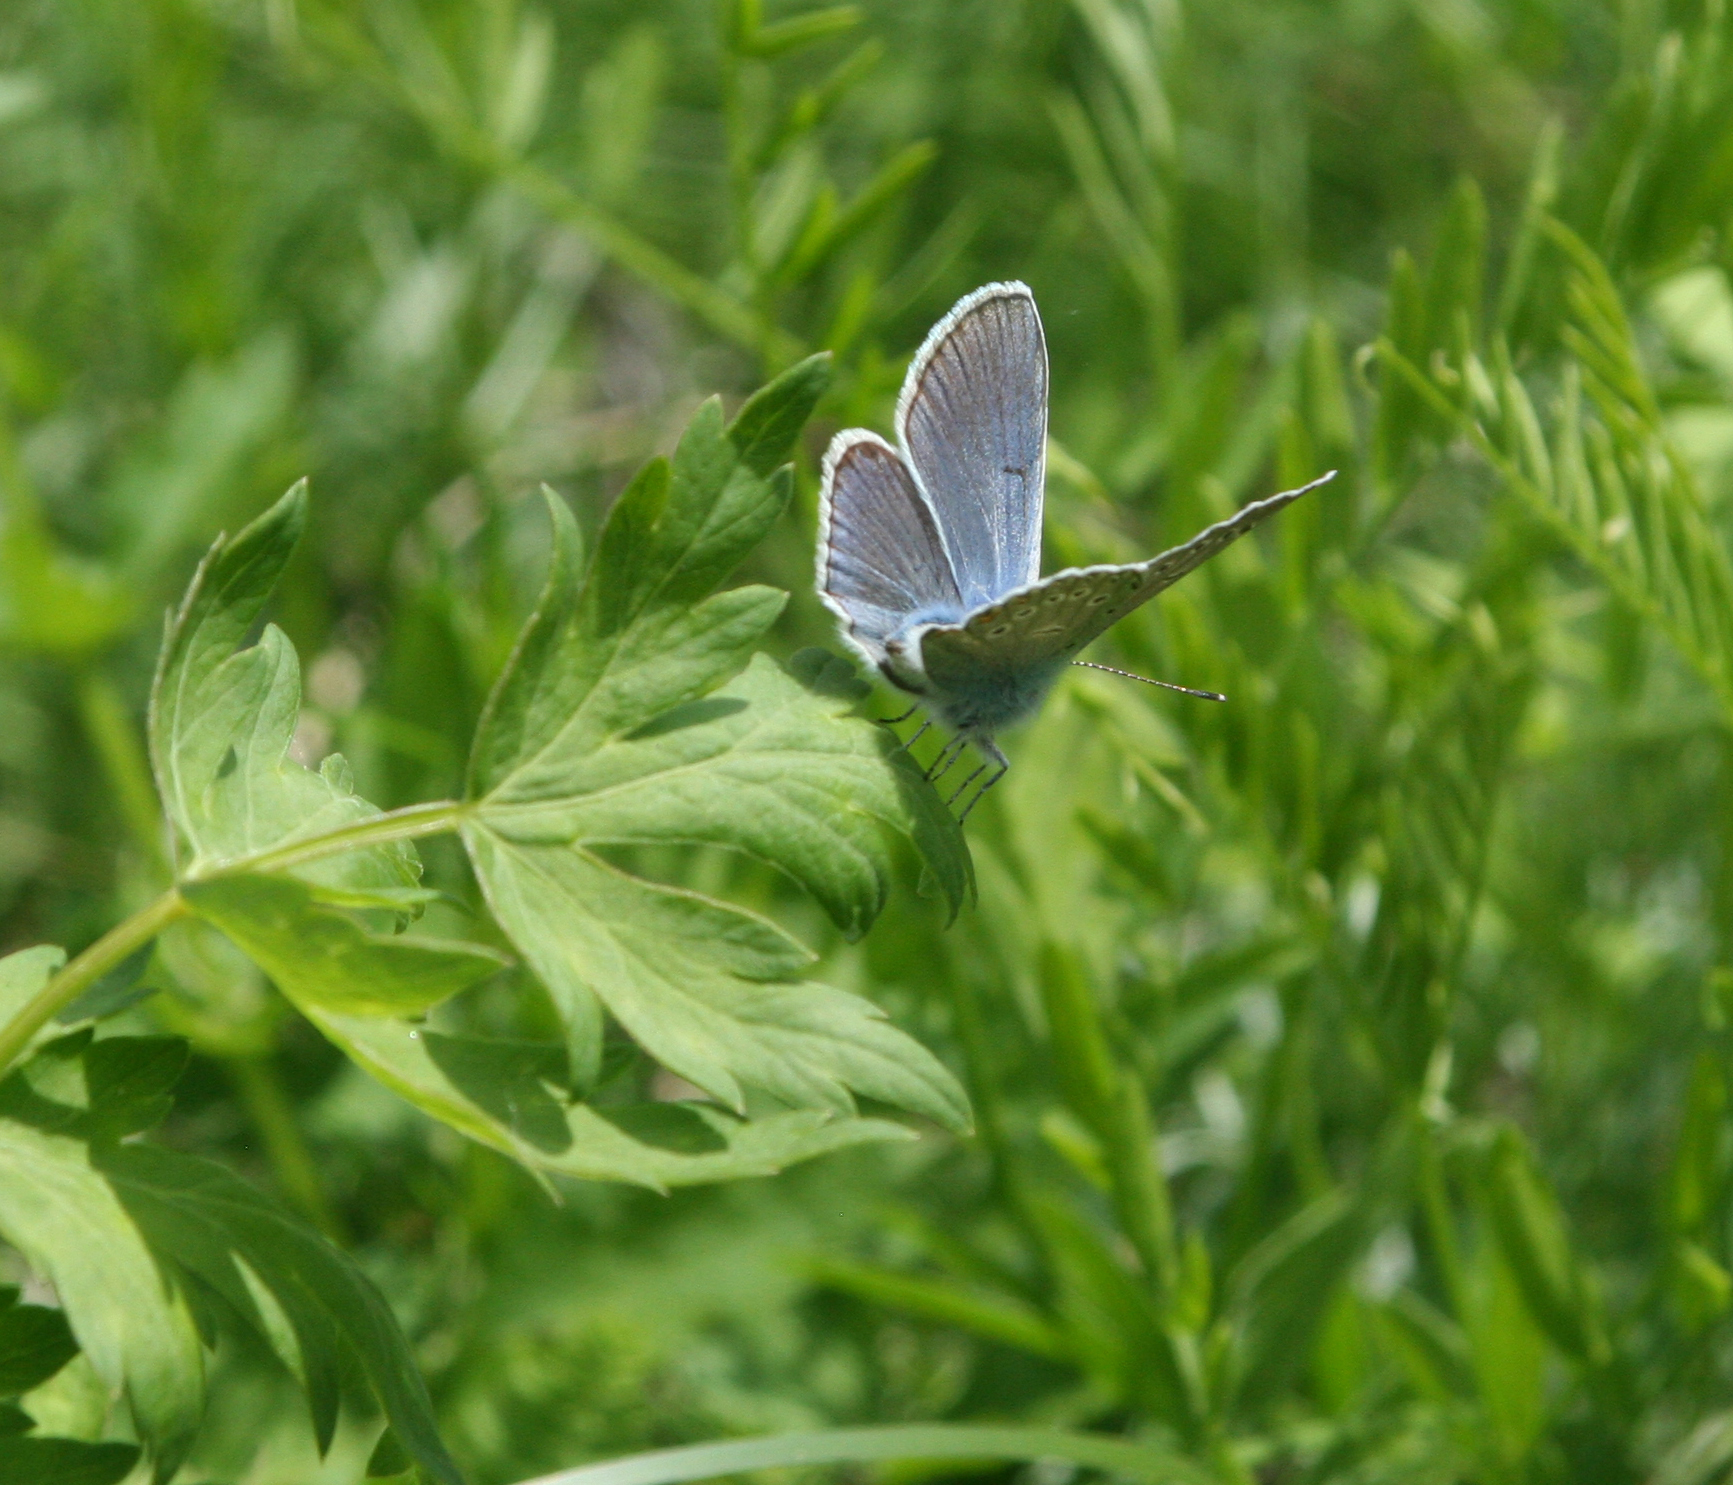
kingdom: Animalia
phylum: Arthropoda
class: Insecta
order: Lepidoptera
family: Lycaenidae
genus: Plebejus
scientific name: Plebejus amanda
